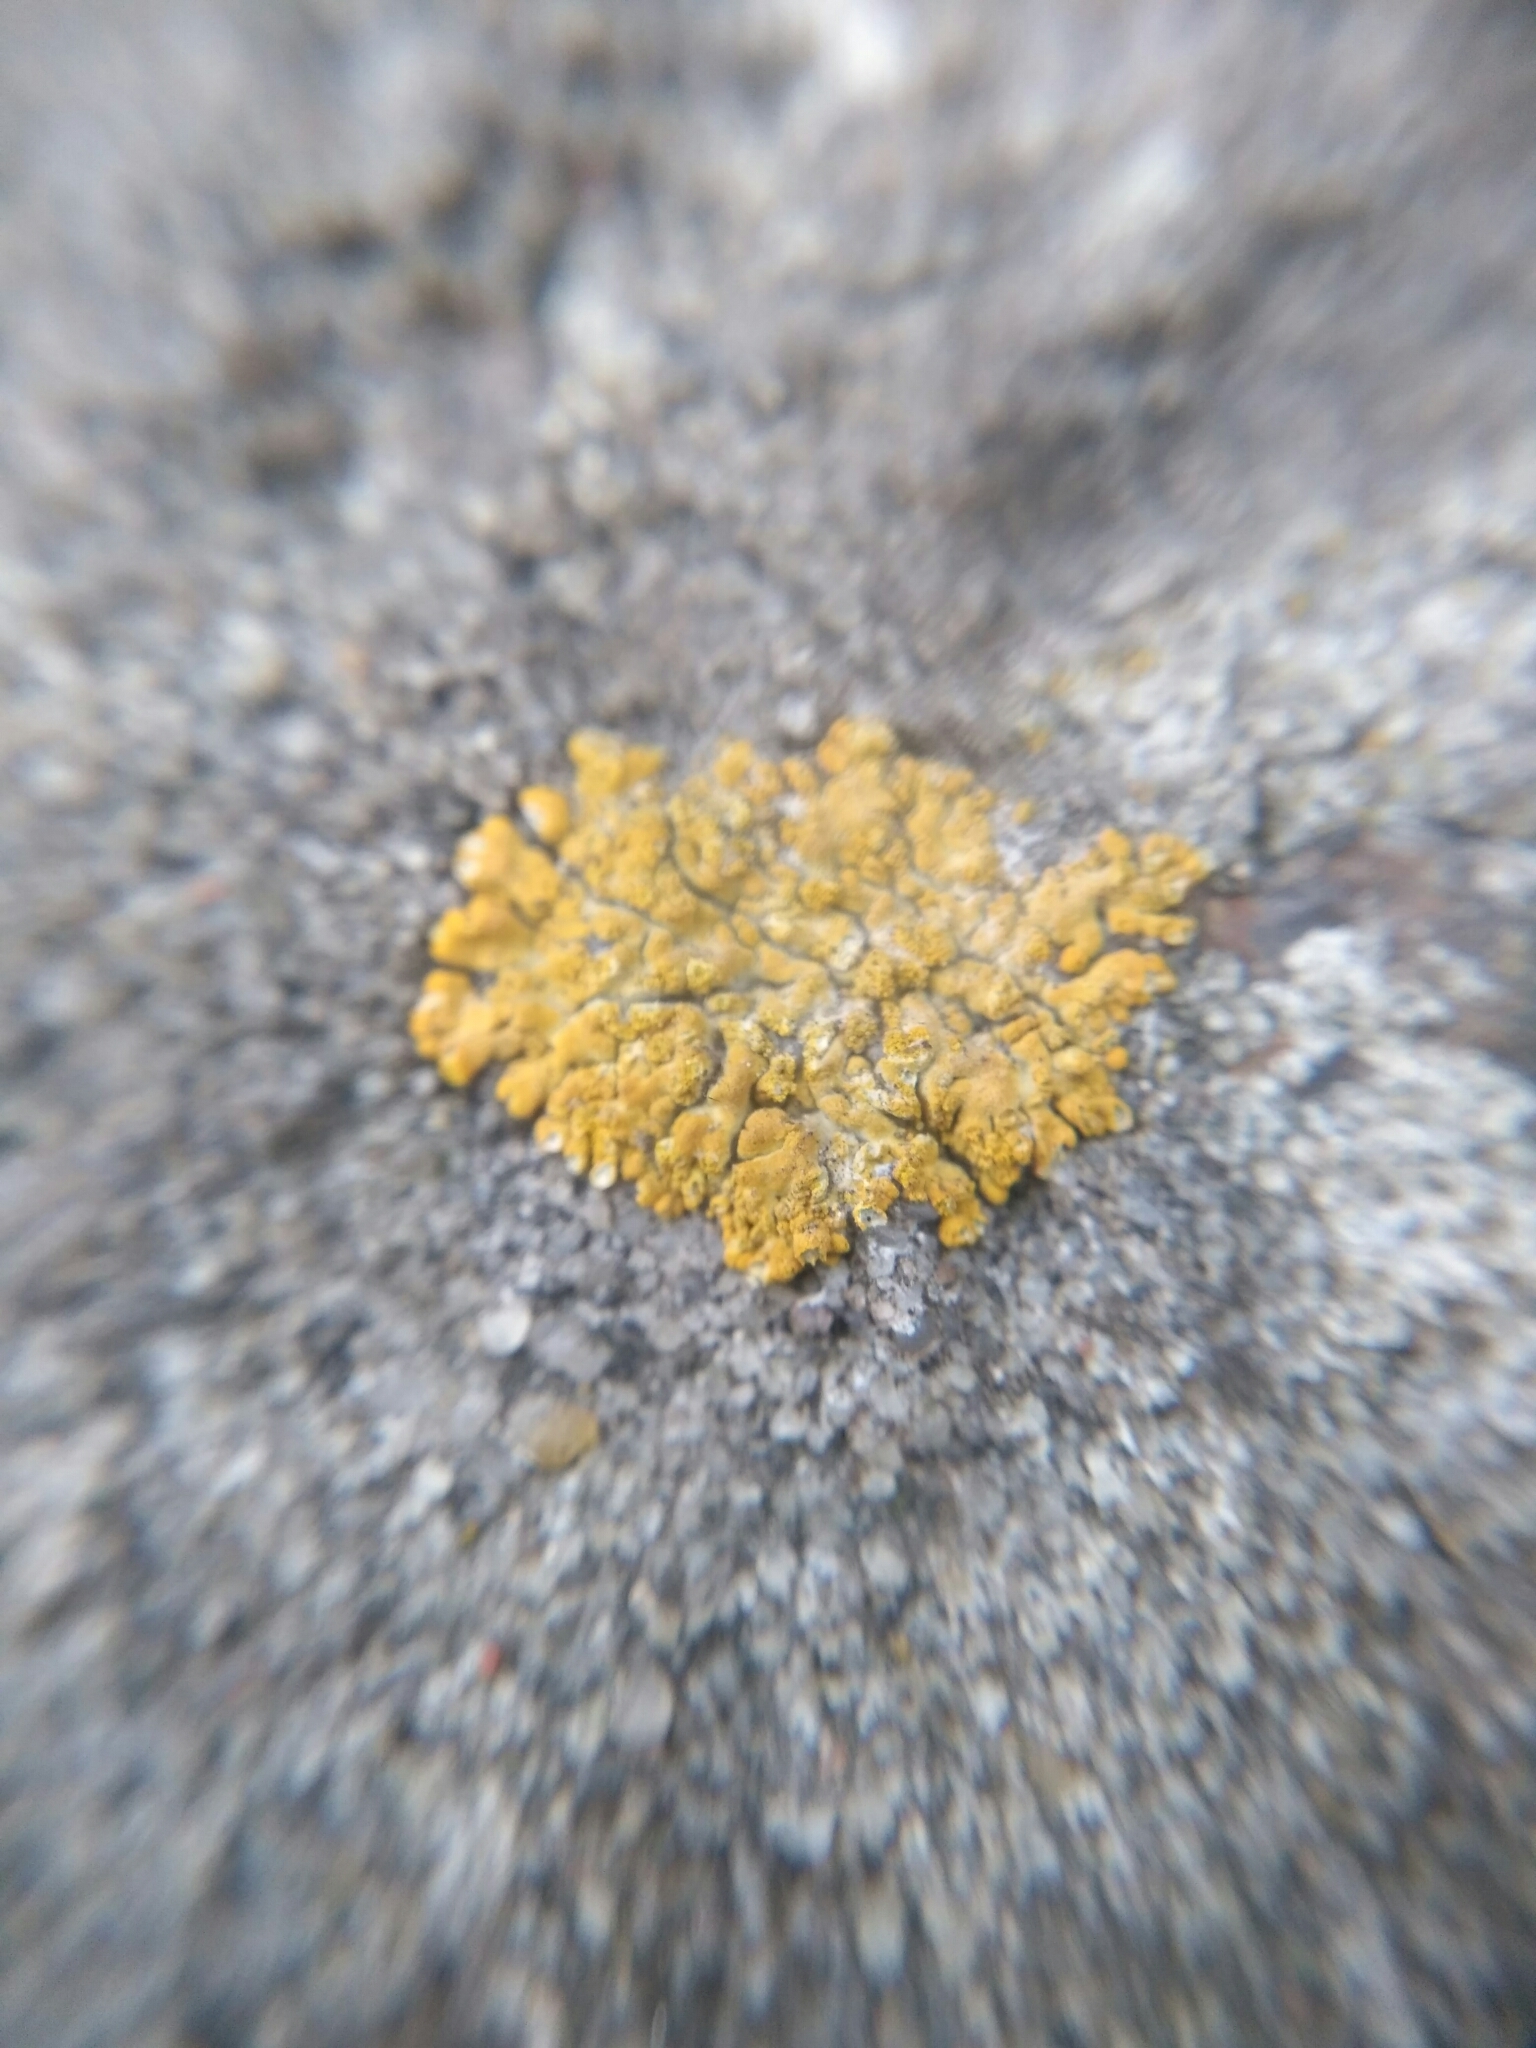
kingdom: Fungi
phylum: Ascomycota
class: Lecanoromycetes
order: Teloschistales
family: Teloschistaceae
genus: Calogaya
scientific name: Calogaya decipiens
